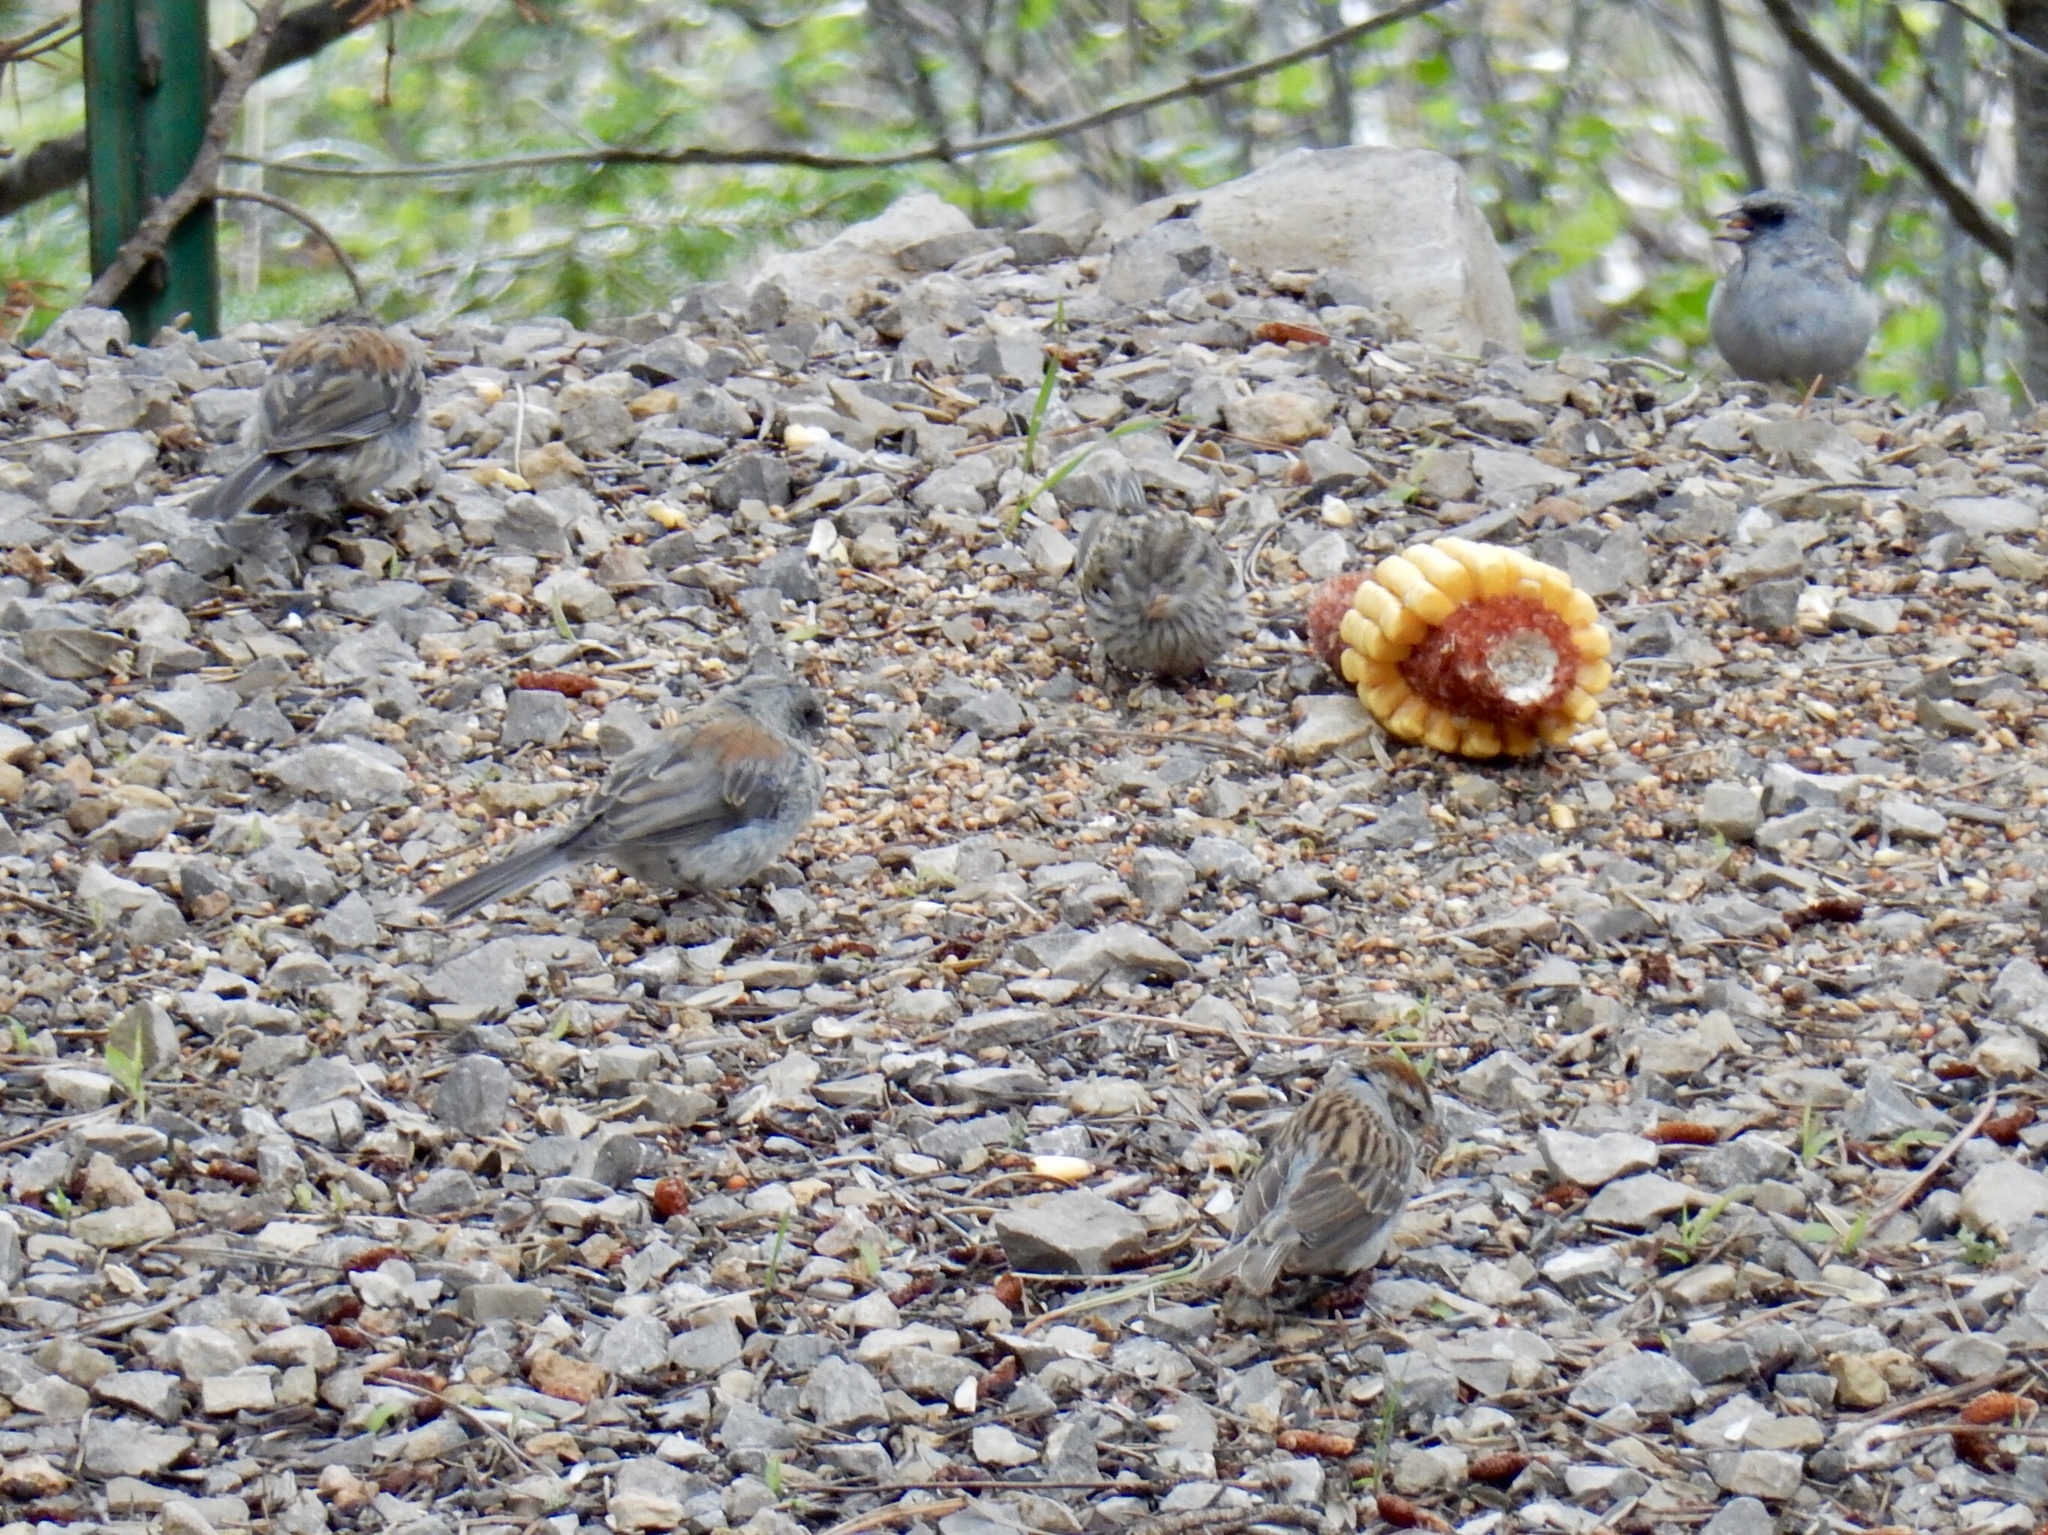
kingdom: Animalia
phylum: Chordata
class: Aves
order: Passeriformes
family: Passerellidae
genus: Junco
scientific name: Junco hyemalis
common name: Dark-eyed junco
